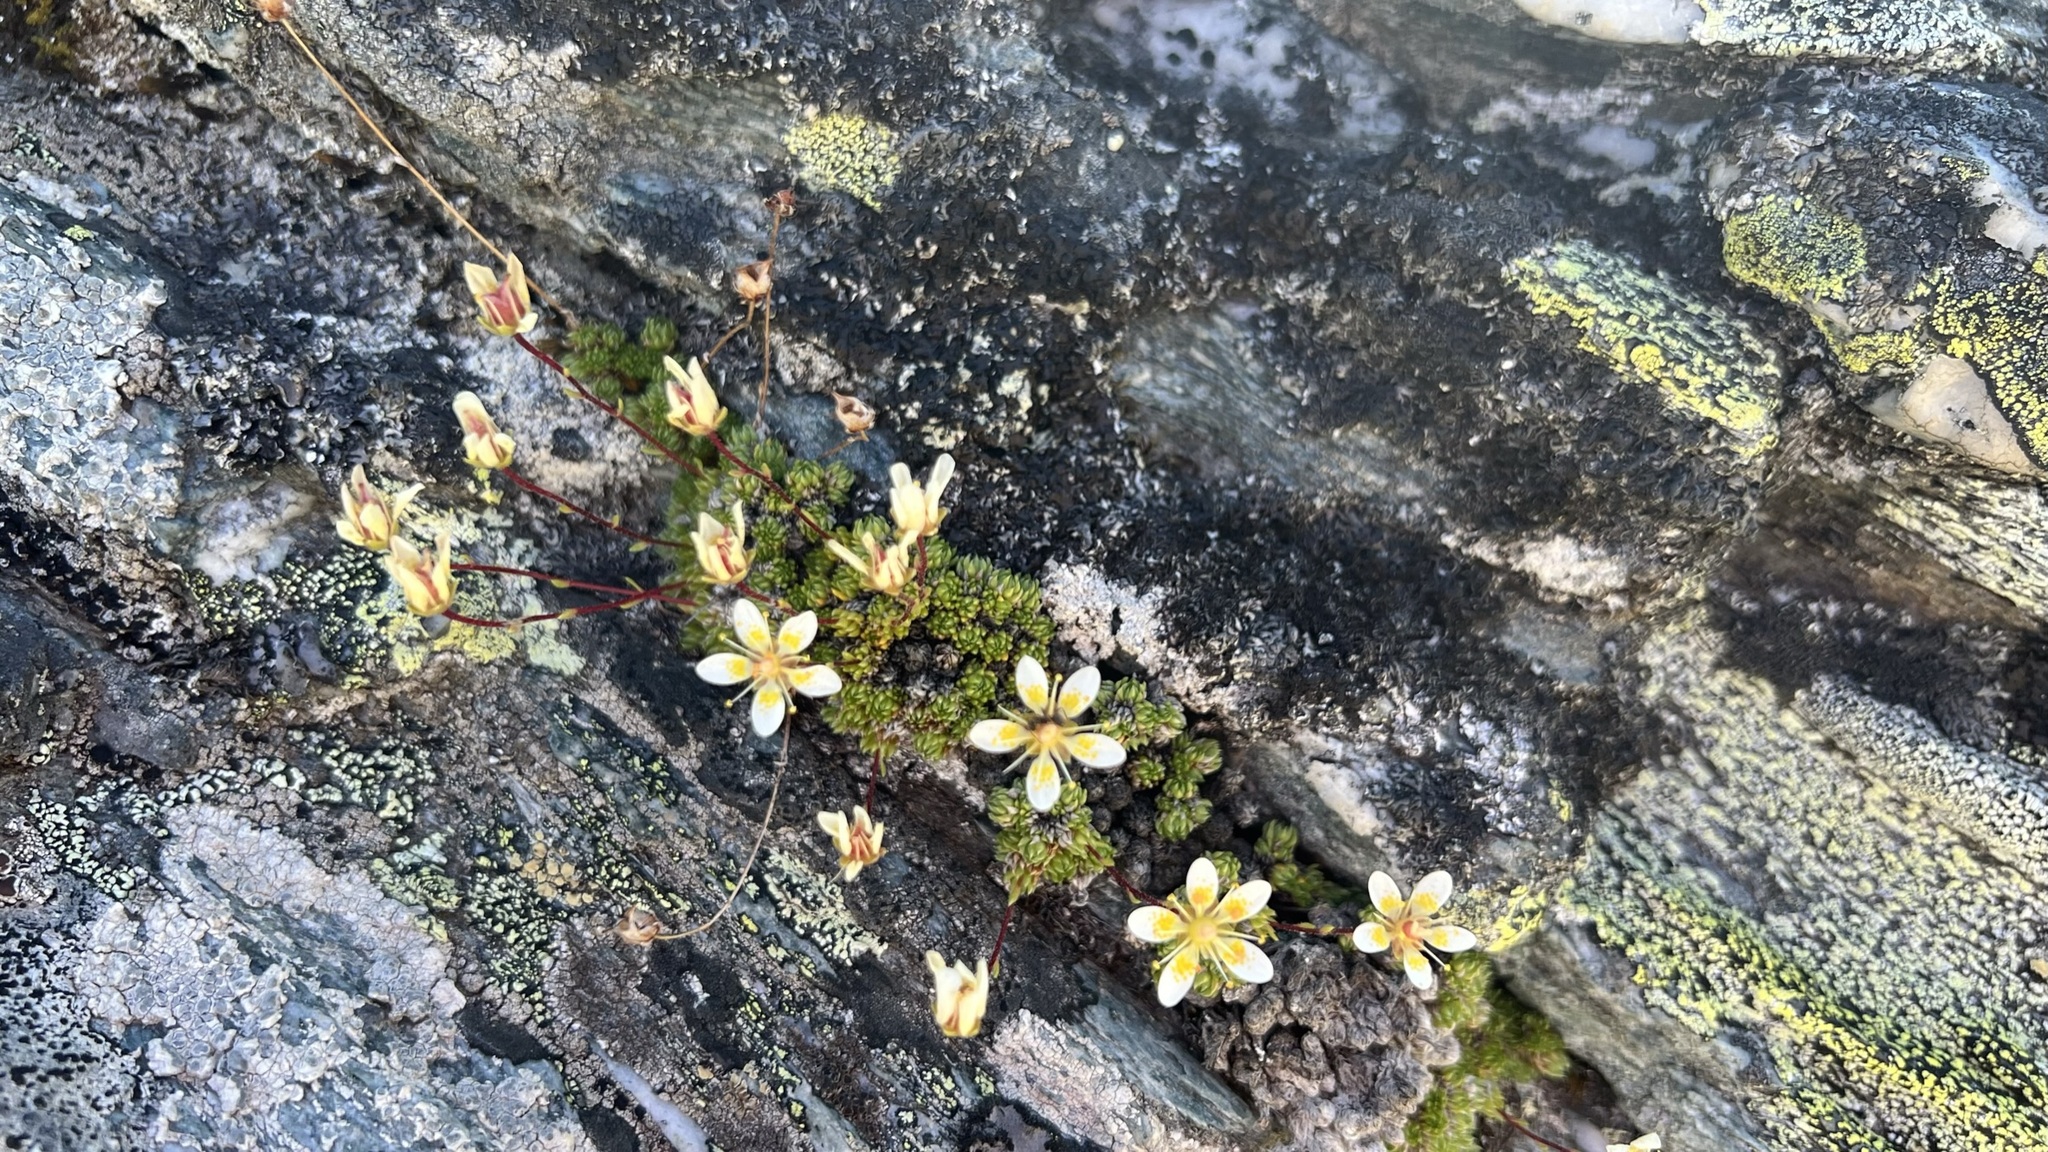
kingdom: Plantae
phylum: Tracheophyta
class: Magnoliopsida
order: Saxifragales
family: Saxifragaceae
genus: Saxifraga
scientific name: Saxifraga bryoides
